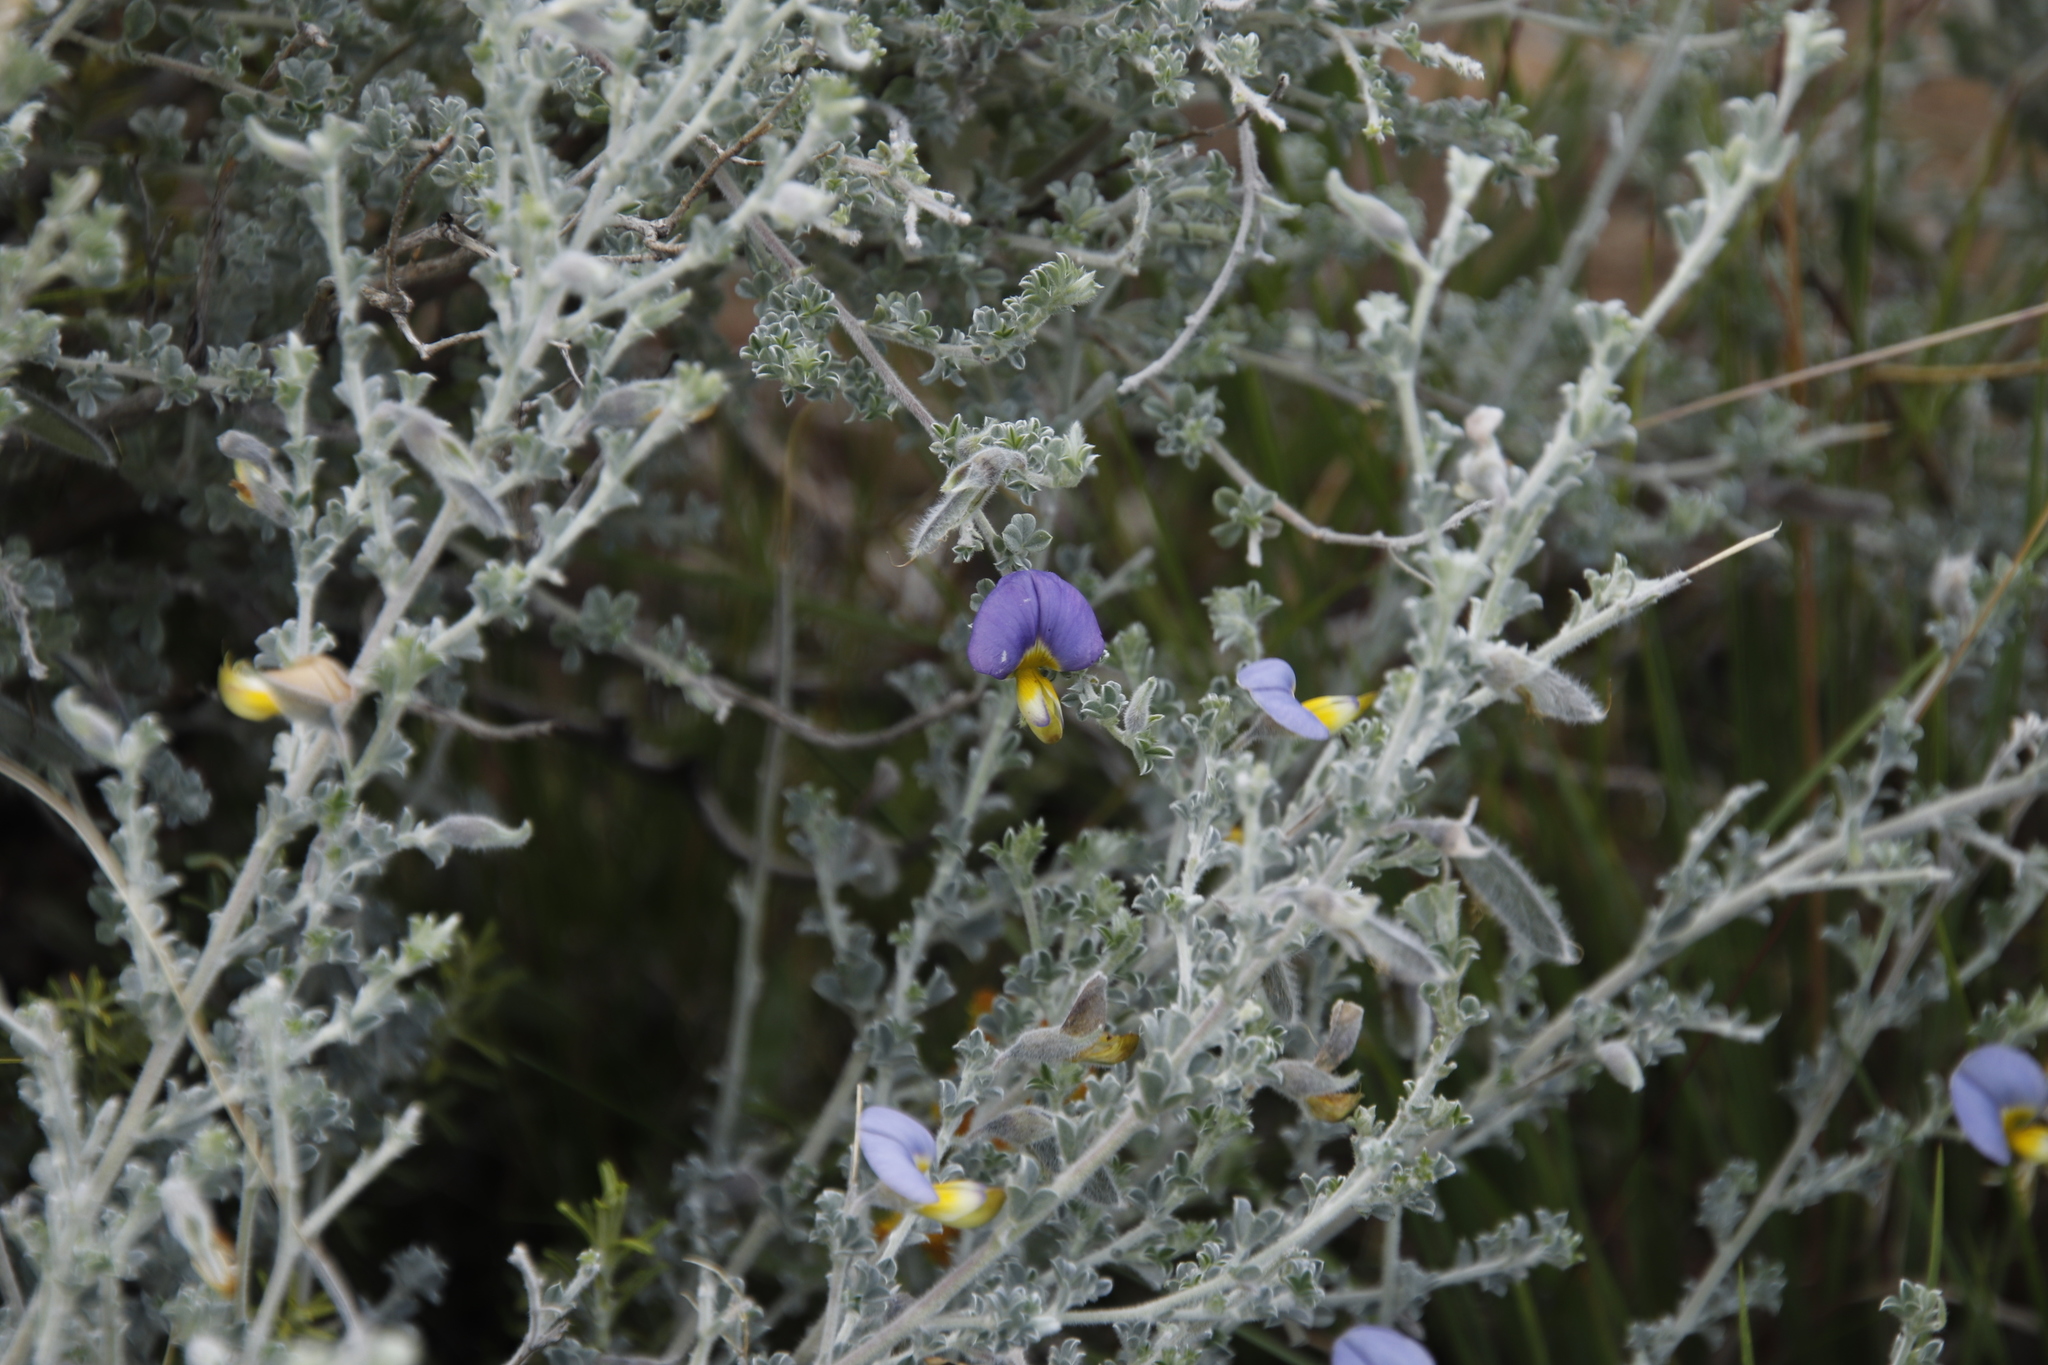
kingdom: Plantae
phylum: Tracheophyta
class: Magnoliopsida
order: Fabales
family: Fabaceae
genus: Lotononis
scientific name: Lotononis sericophylla
